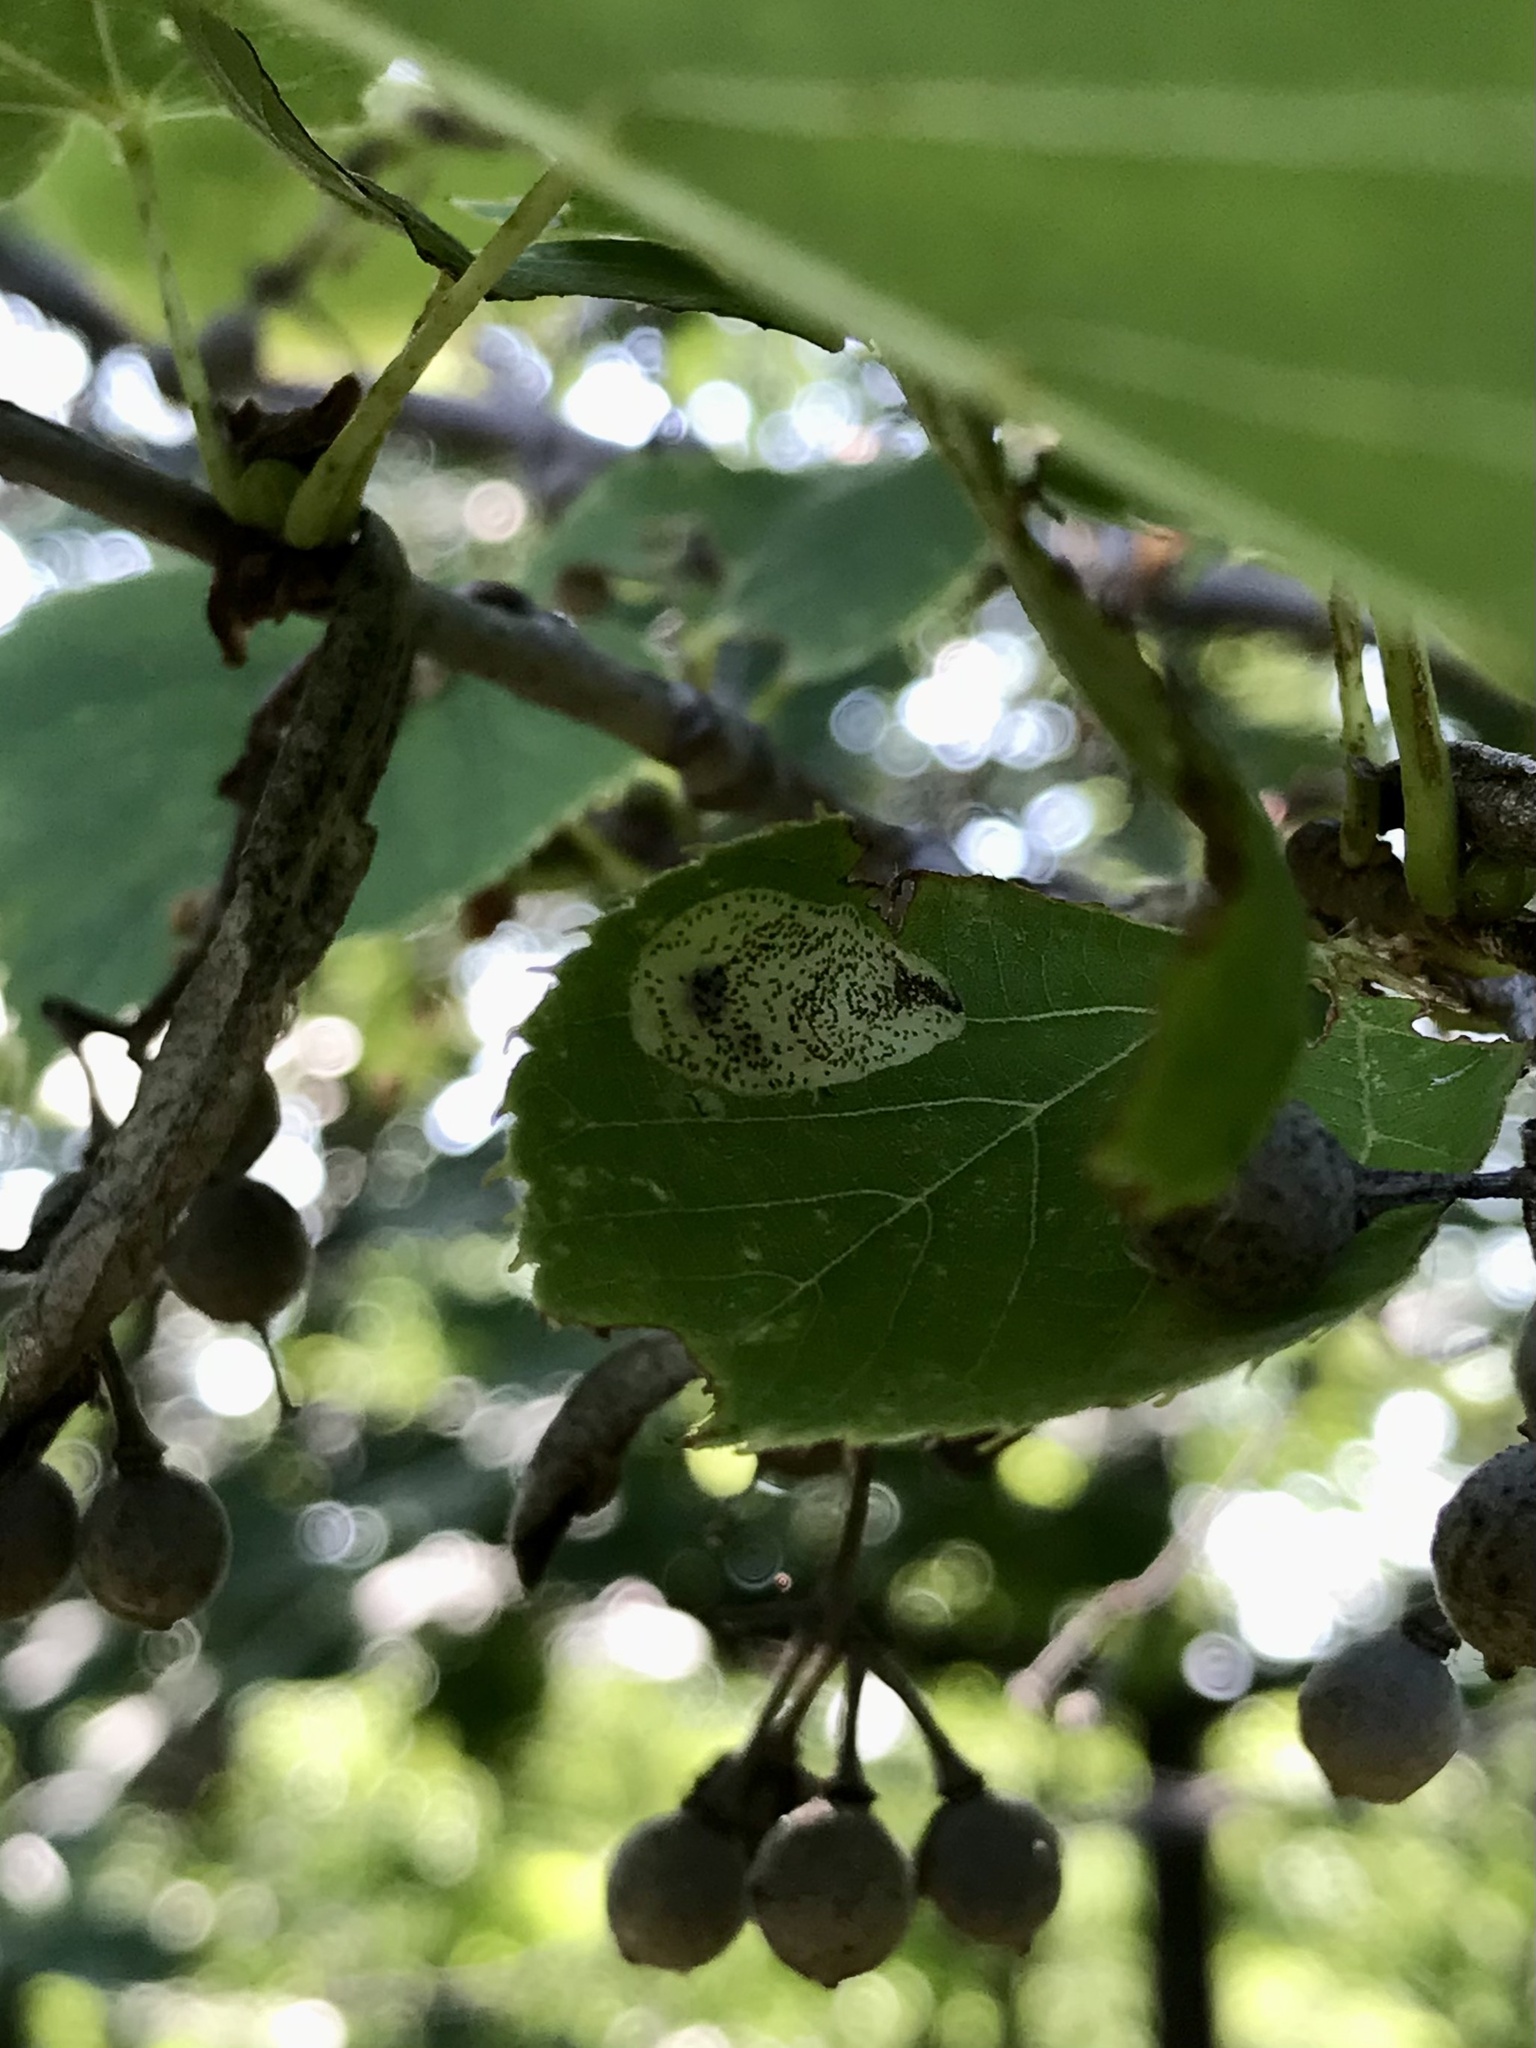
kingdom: Animalia
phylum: Arthropoda
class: Insecta
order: Lepidoptera
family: Gracillariidae
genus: Phyllonorycter
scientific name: Phyllonorycter tiliacella
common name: Basswood round-blotch miner moth
